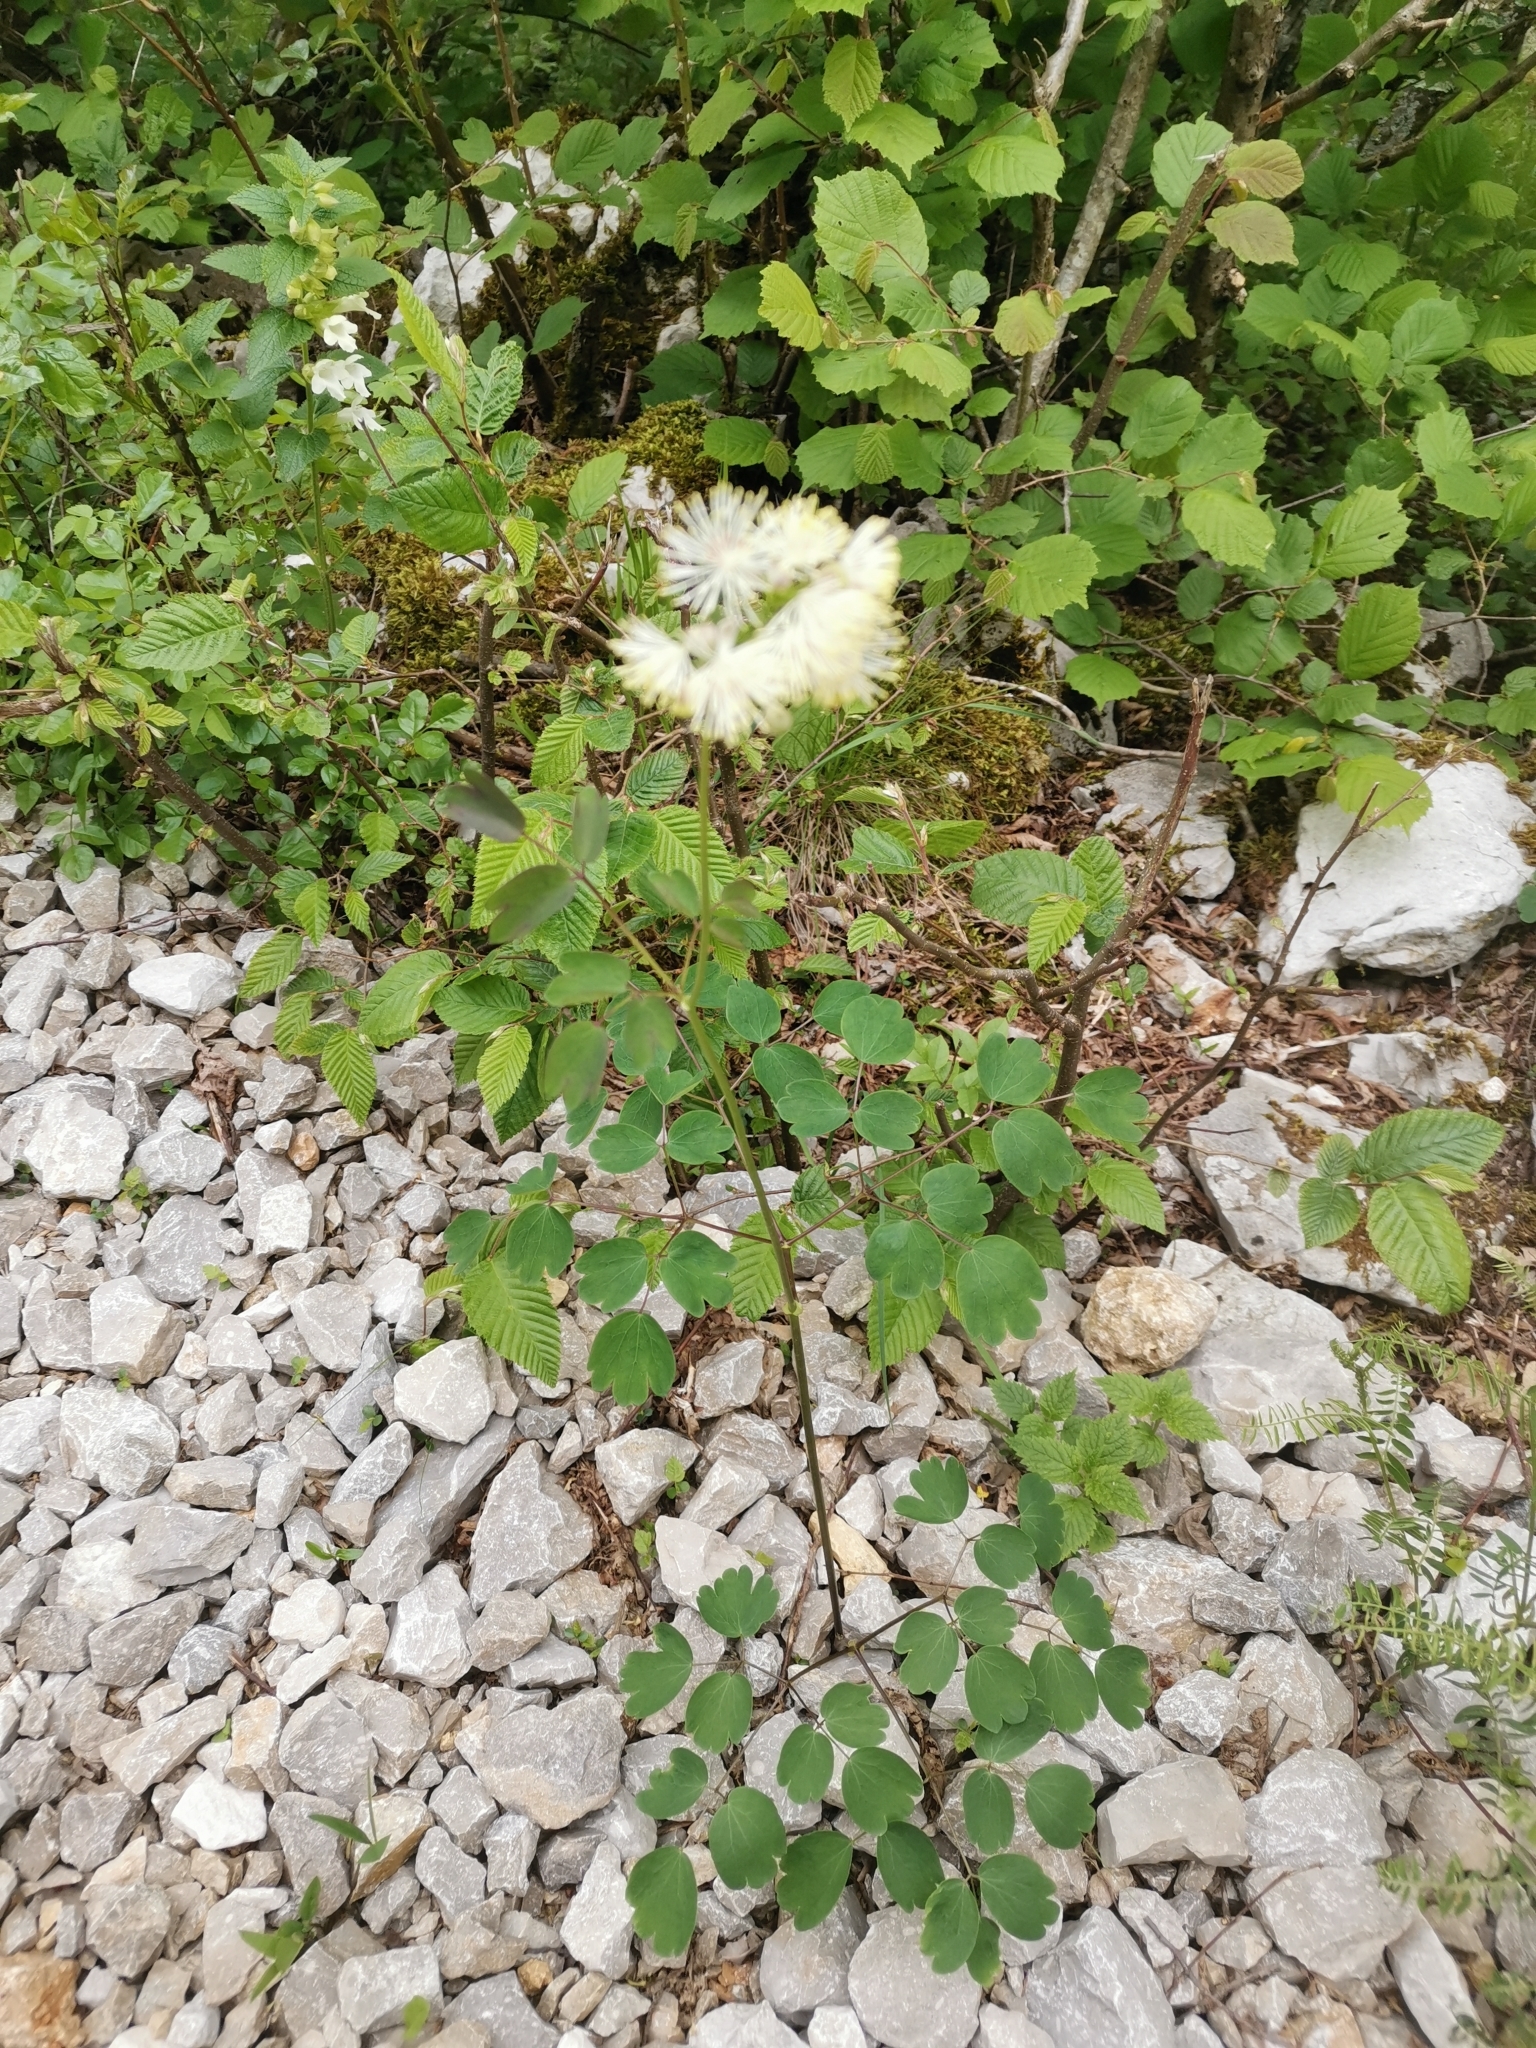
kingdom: Plantae
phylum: Tracheophyta
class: Magnoliopsida
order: Ranunculales
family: Ranunculaceae
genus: Thalictrum
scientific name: Thalictrum aquilegiifolium
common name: French meadow-rue
